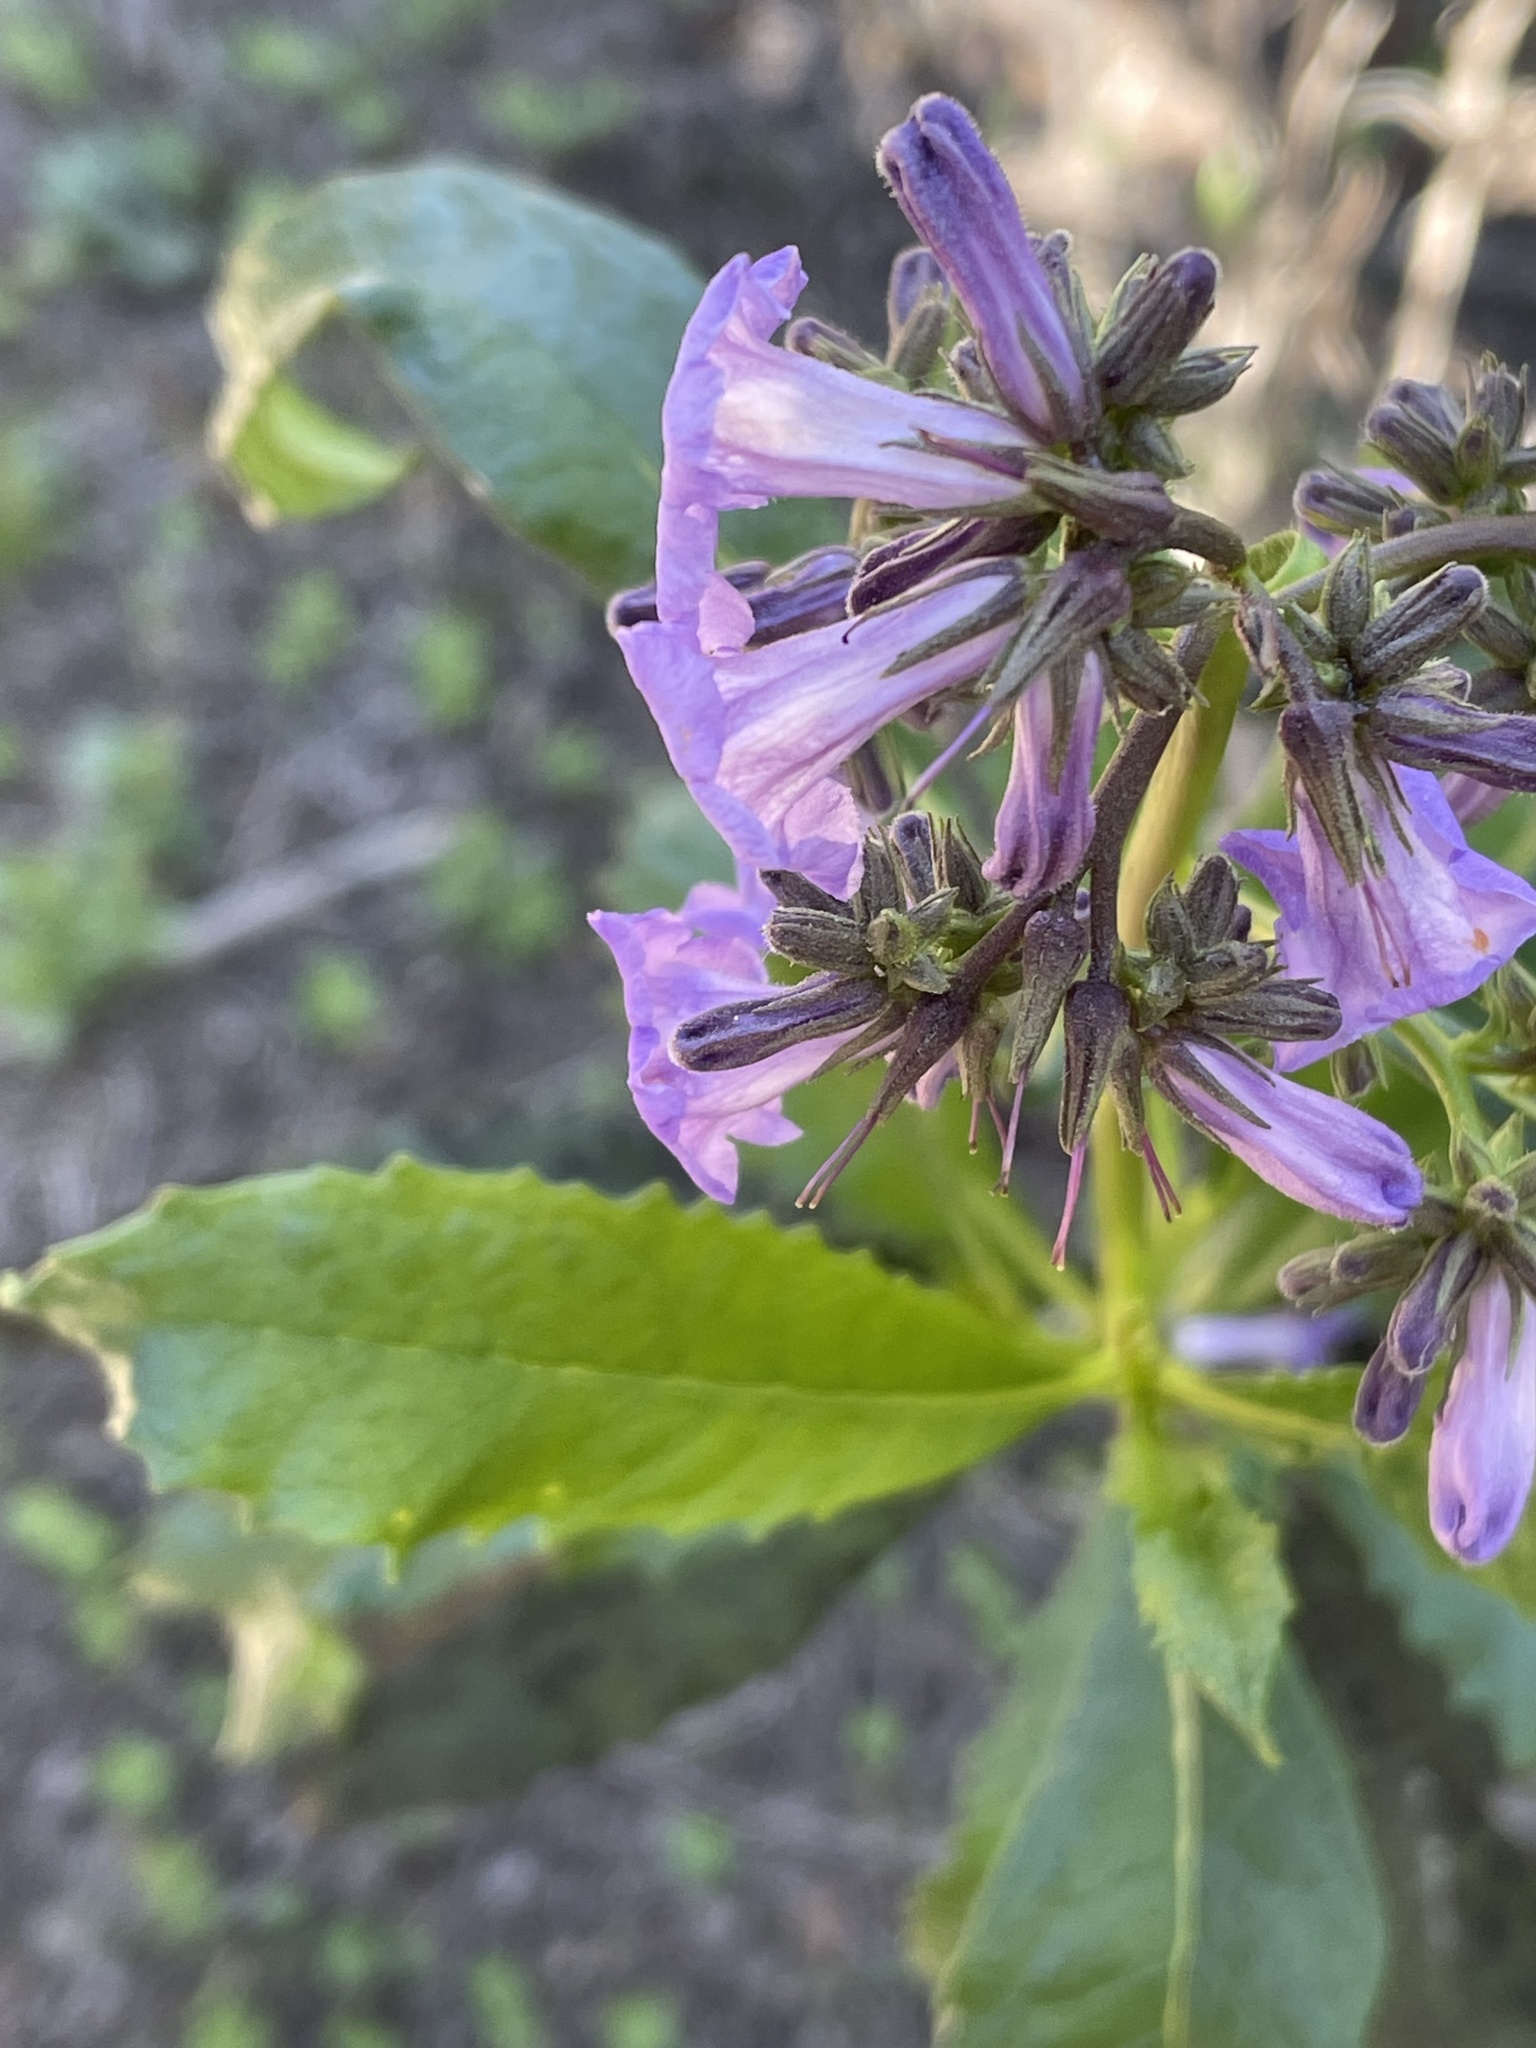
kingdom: Plantae
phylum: Tracheophyta
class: Magnoliopsida
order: Boraginales
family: Namaceae
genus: Eriodictyon
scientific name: Eriodictyon californicum
